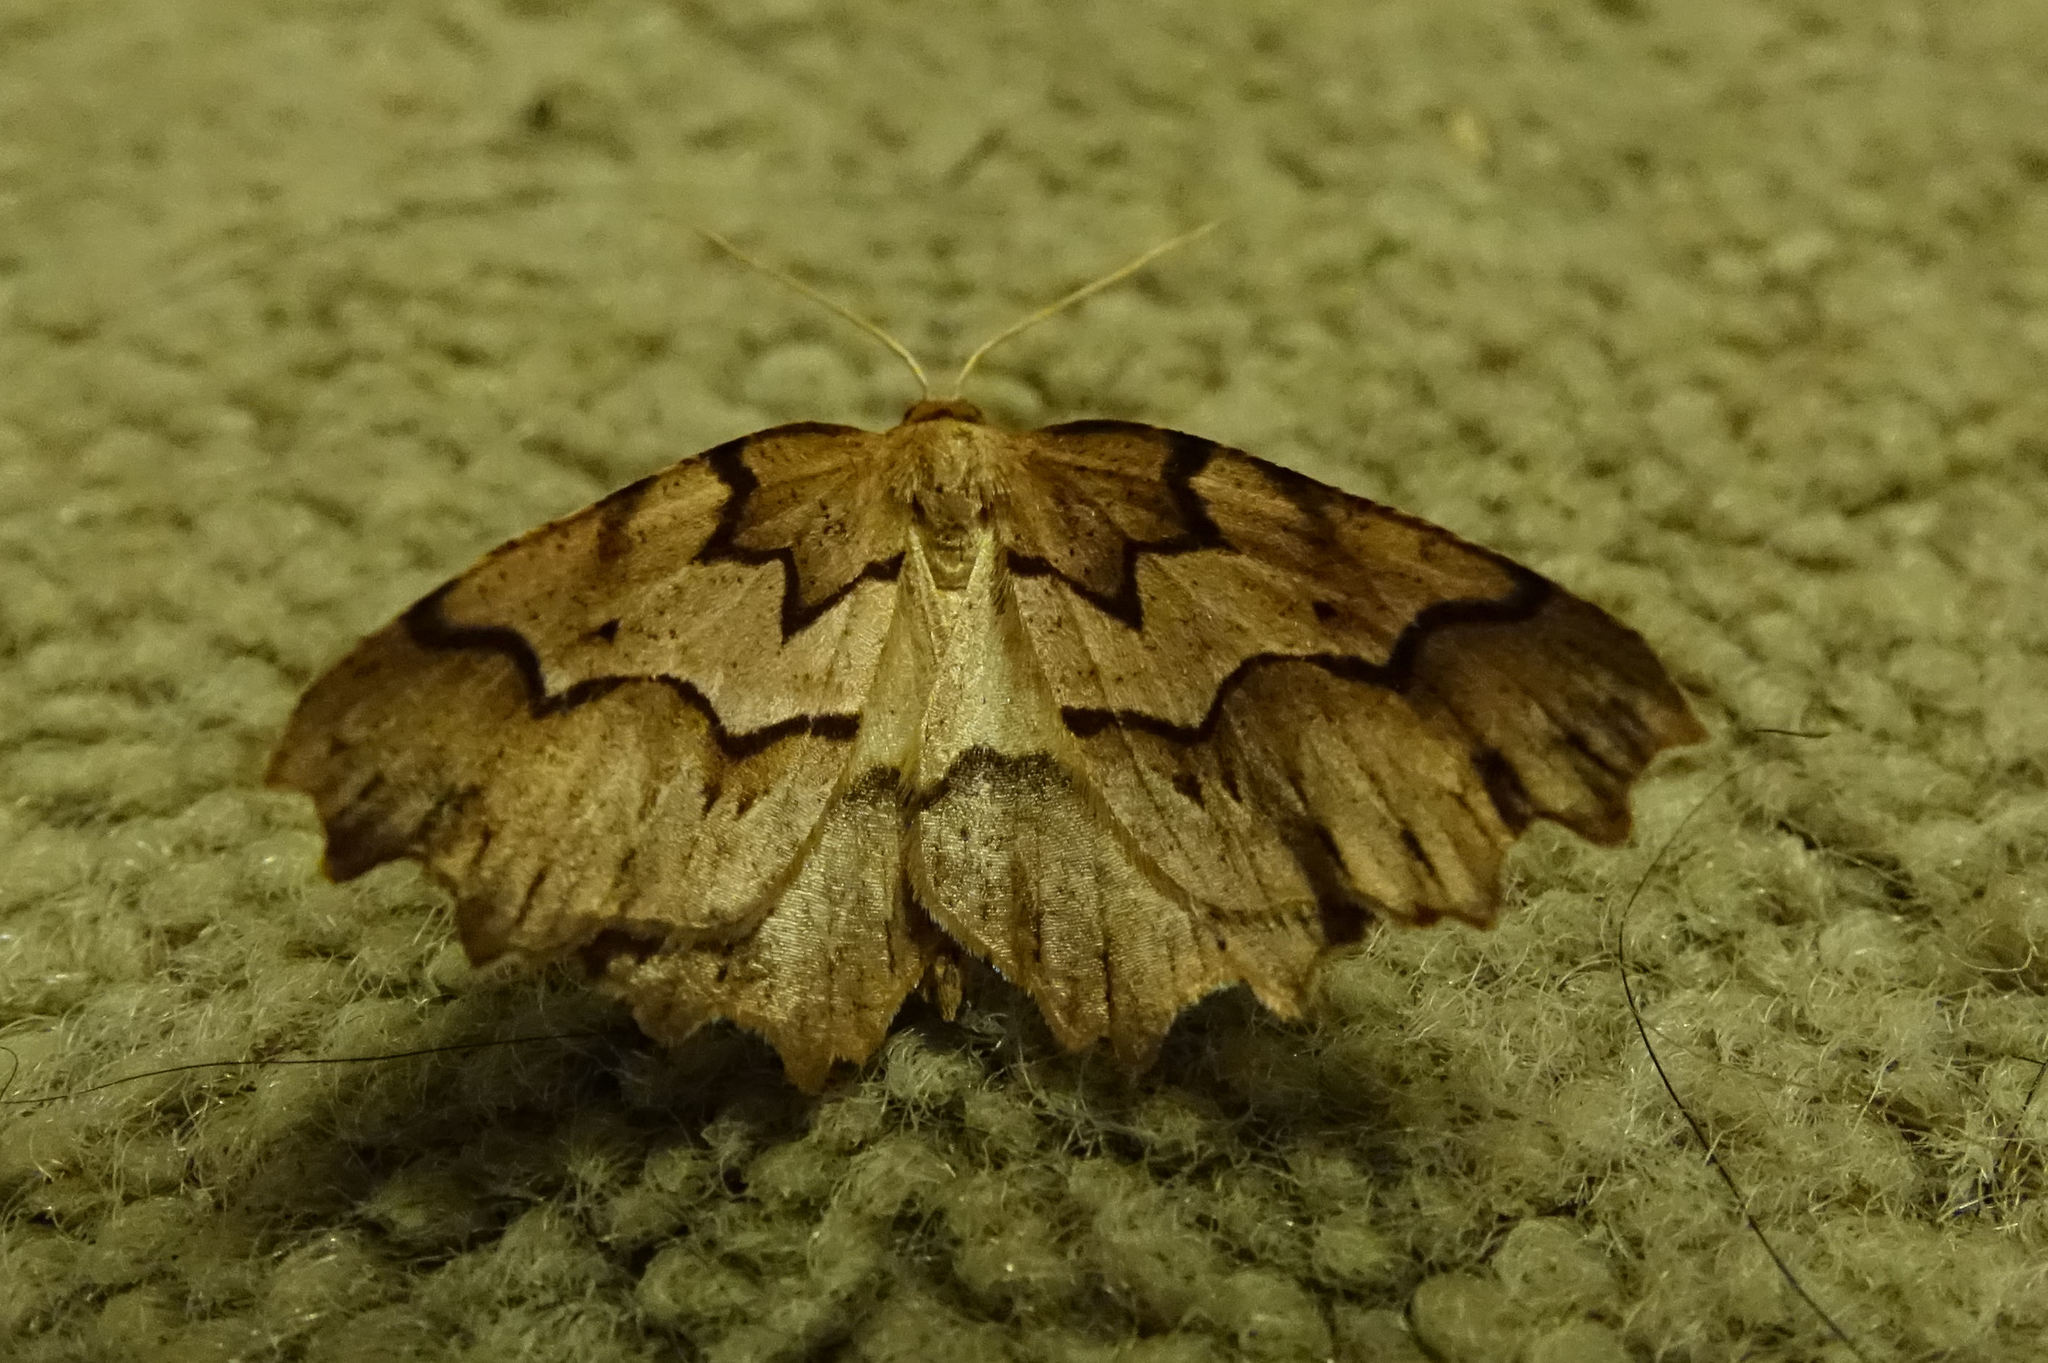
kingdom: Animalia
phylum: Arthropoda
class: Insecta
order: Lepidoptera
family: Geometridae
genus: Ischalis
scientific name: Ischalis fortinata
